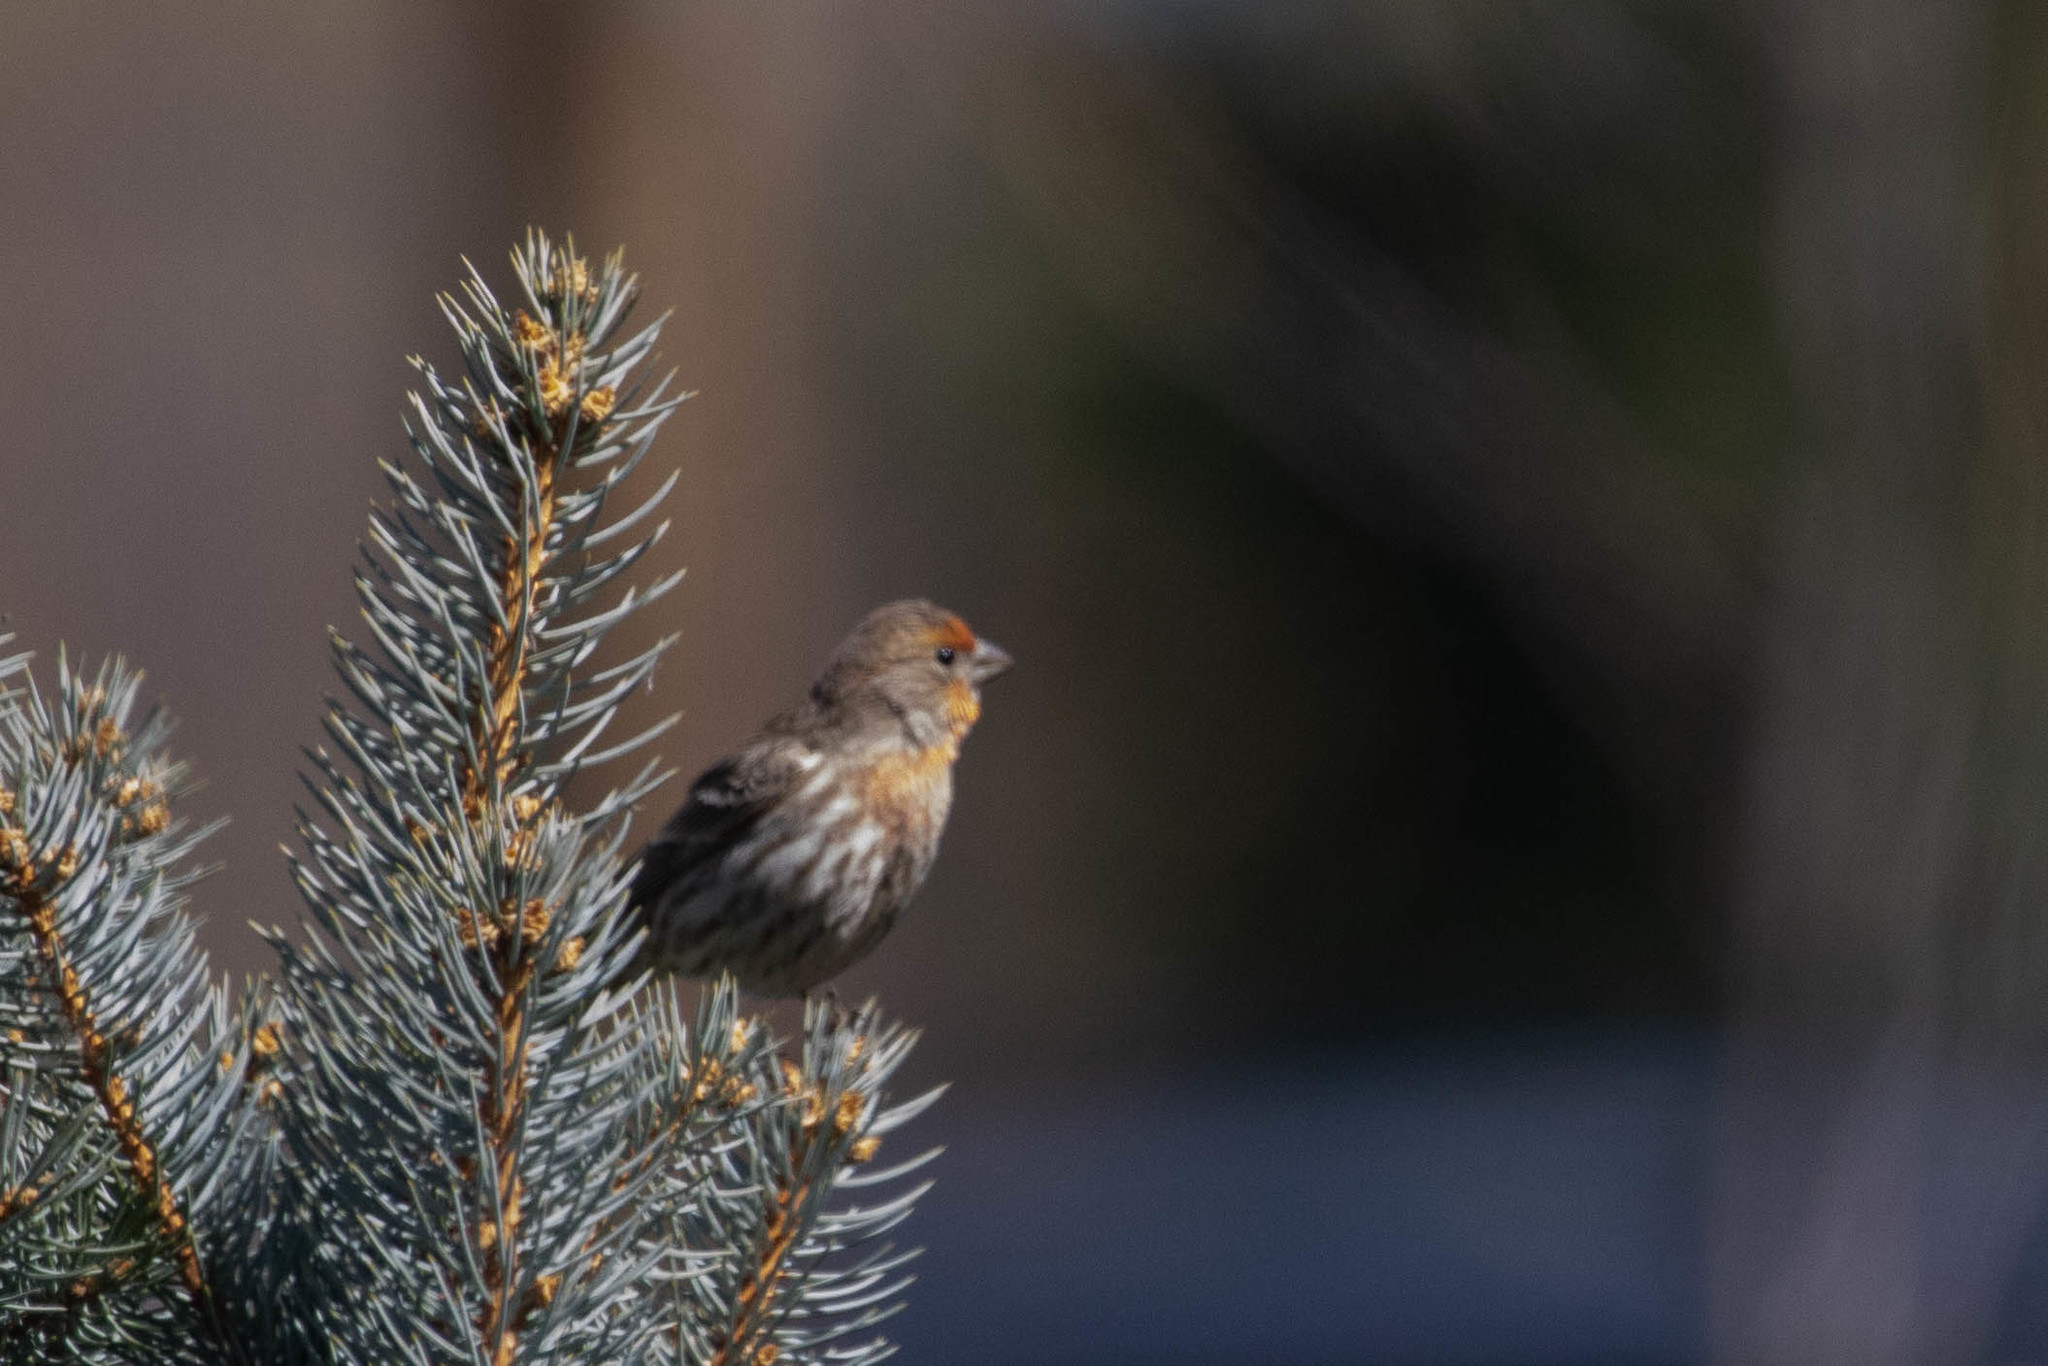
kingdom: Animalia
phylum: Chordata
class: Aves
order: Passeriformes
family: Fringillidae
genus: Haemorhous
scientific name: Haemorhous mexicanus
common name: House finch
